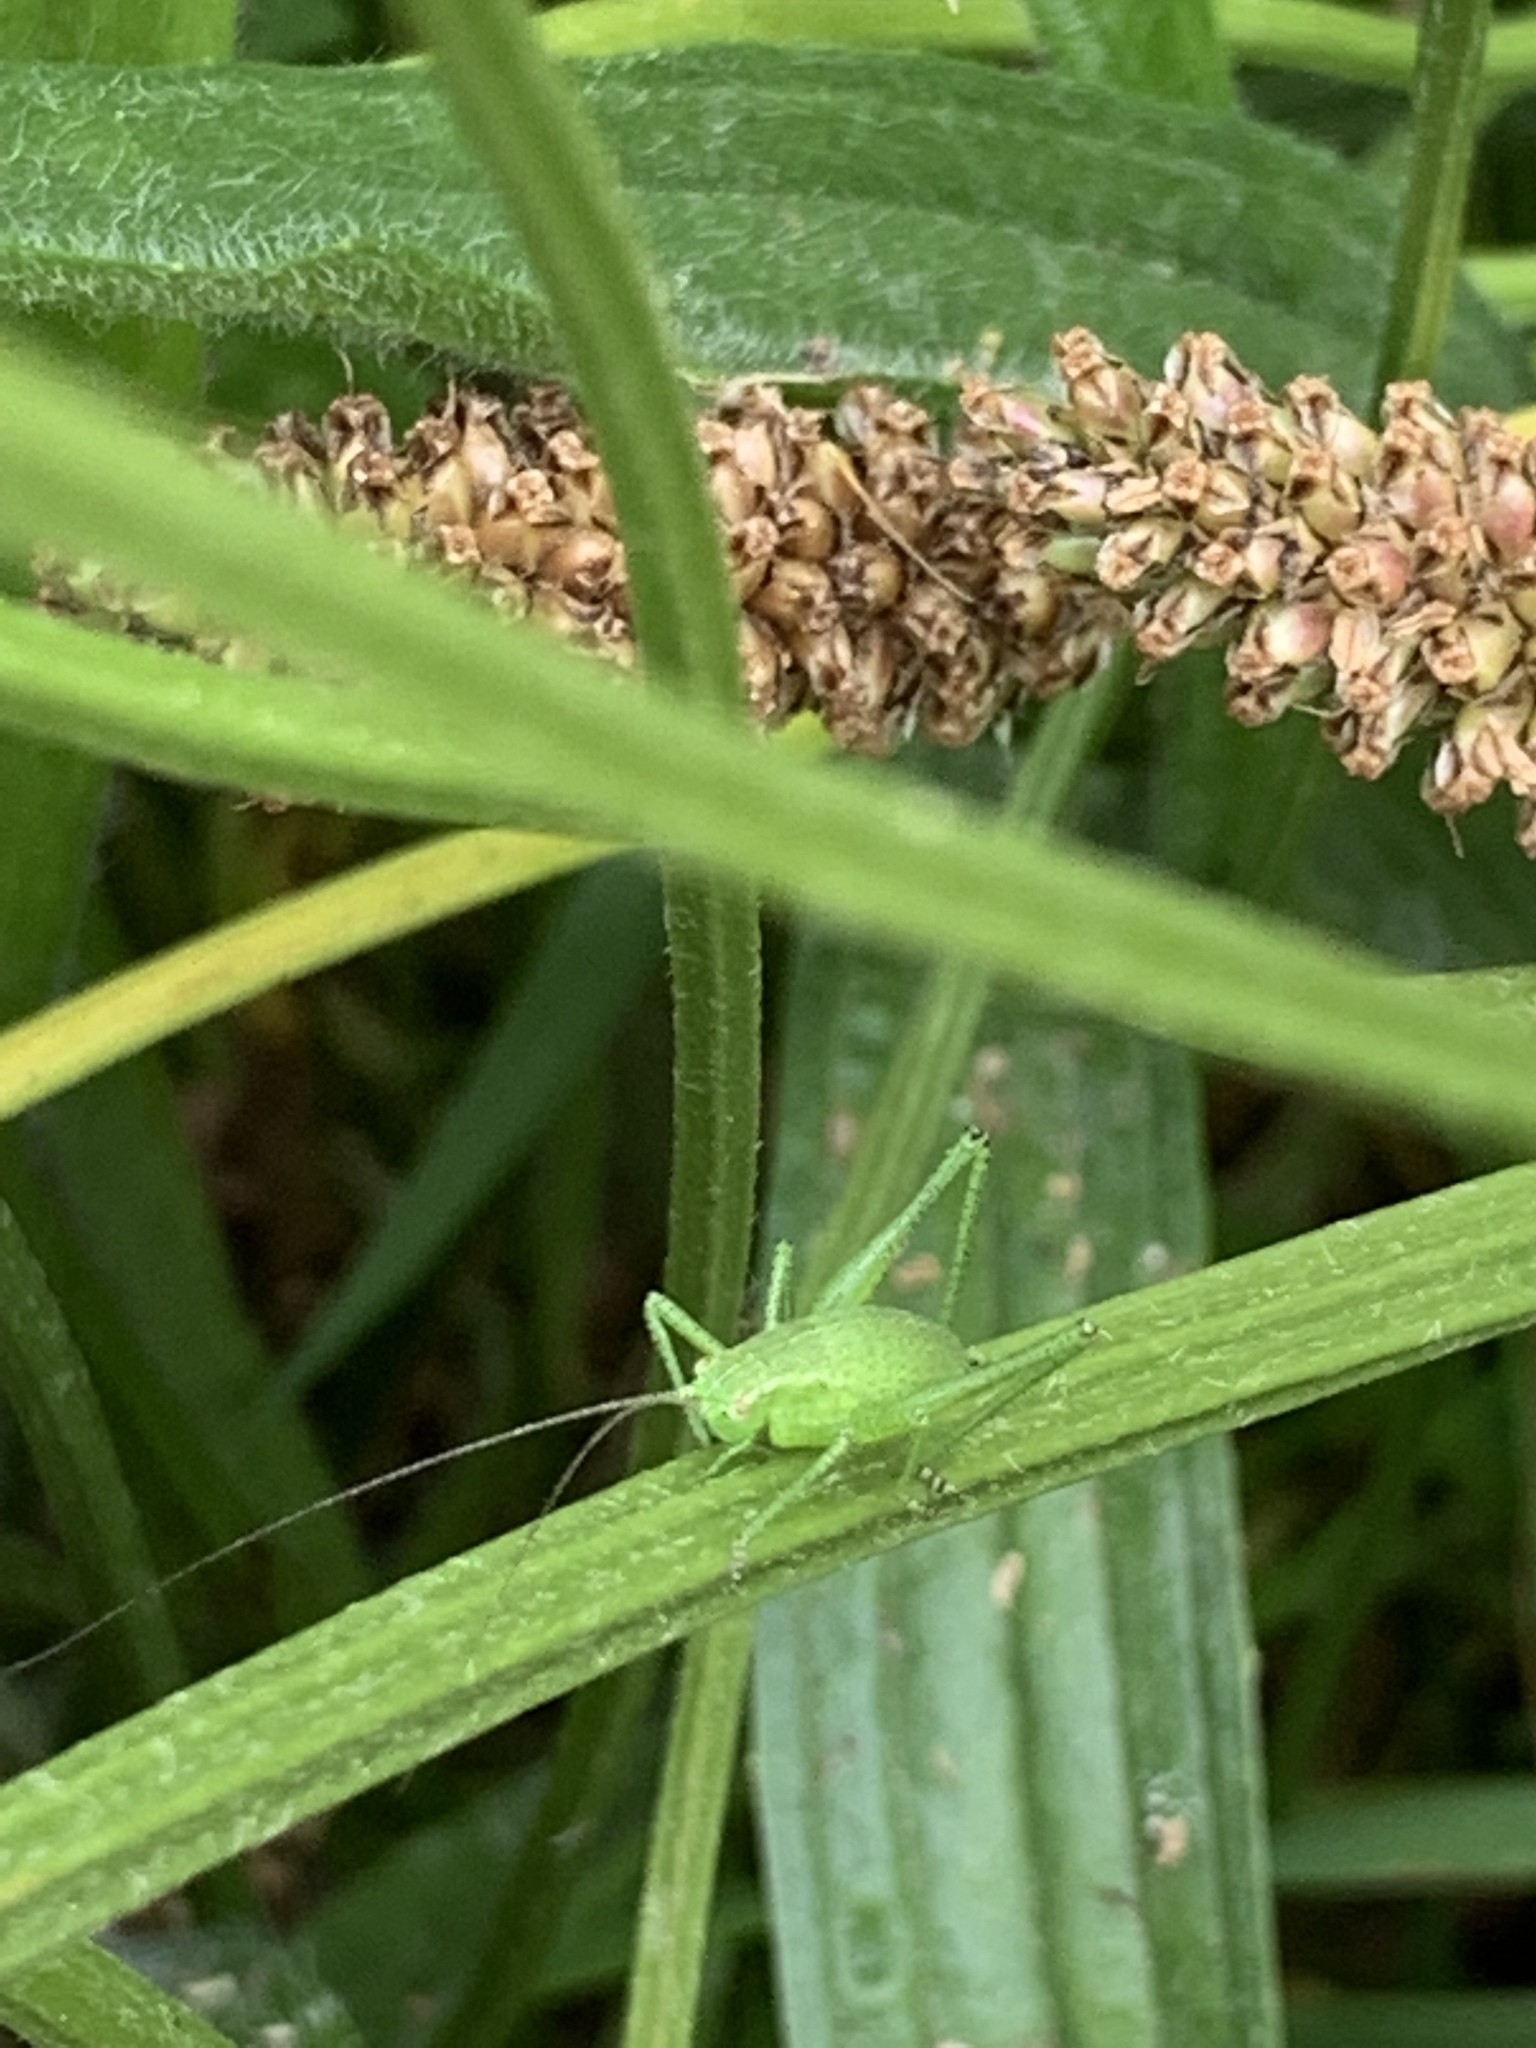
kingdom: Animalia
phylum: Arthropoda
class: Insecta
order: Orthoptera
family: Tettigoniidae
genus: Leptophyes
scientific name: Leptophyes punctatissima
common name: Speckled bush-cricket
